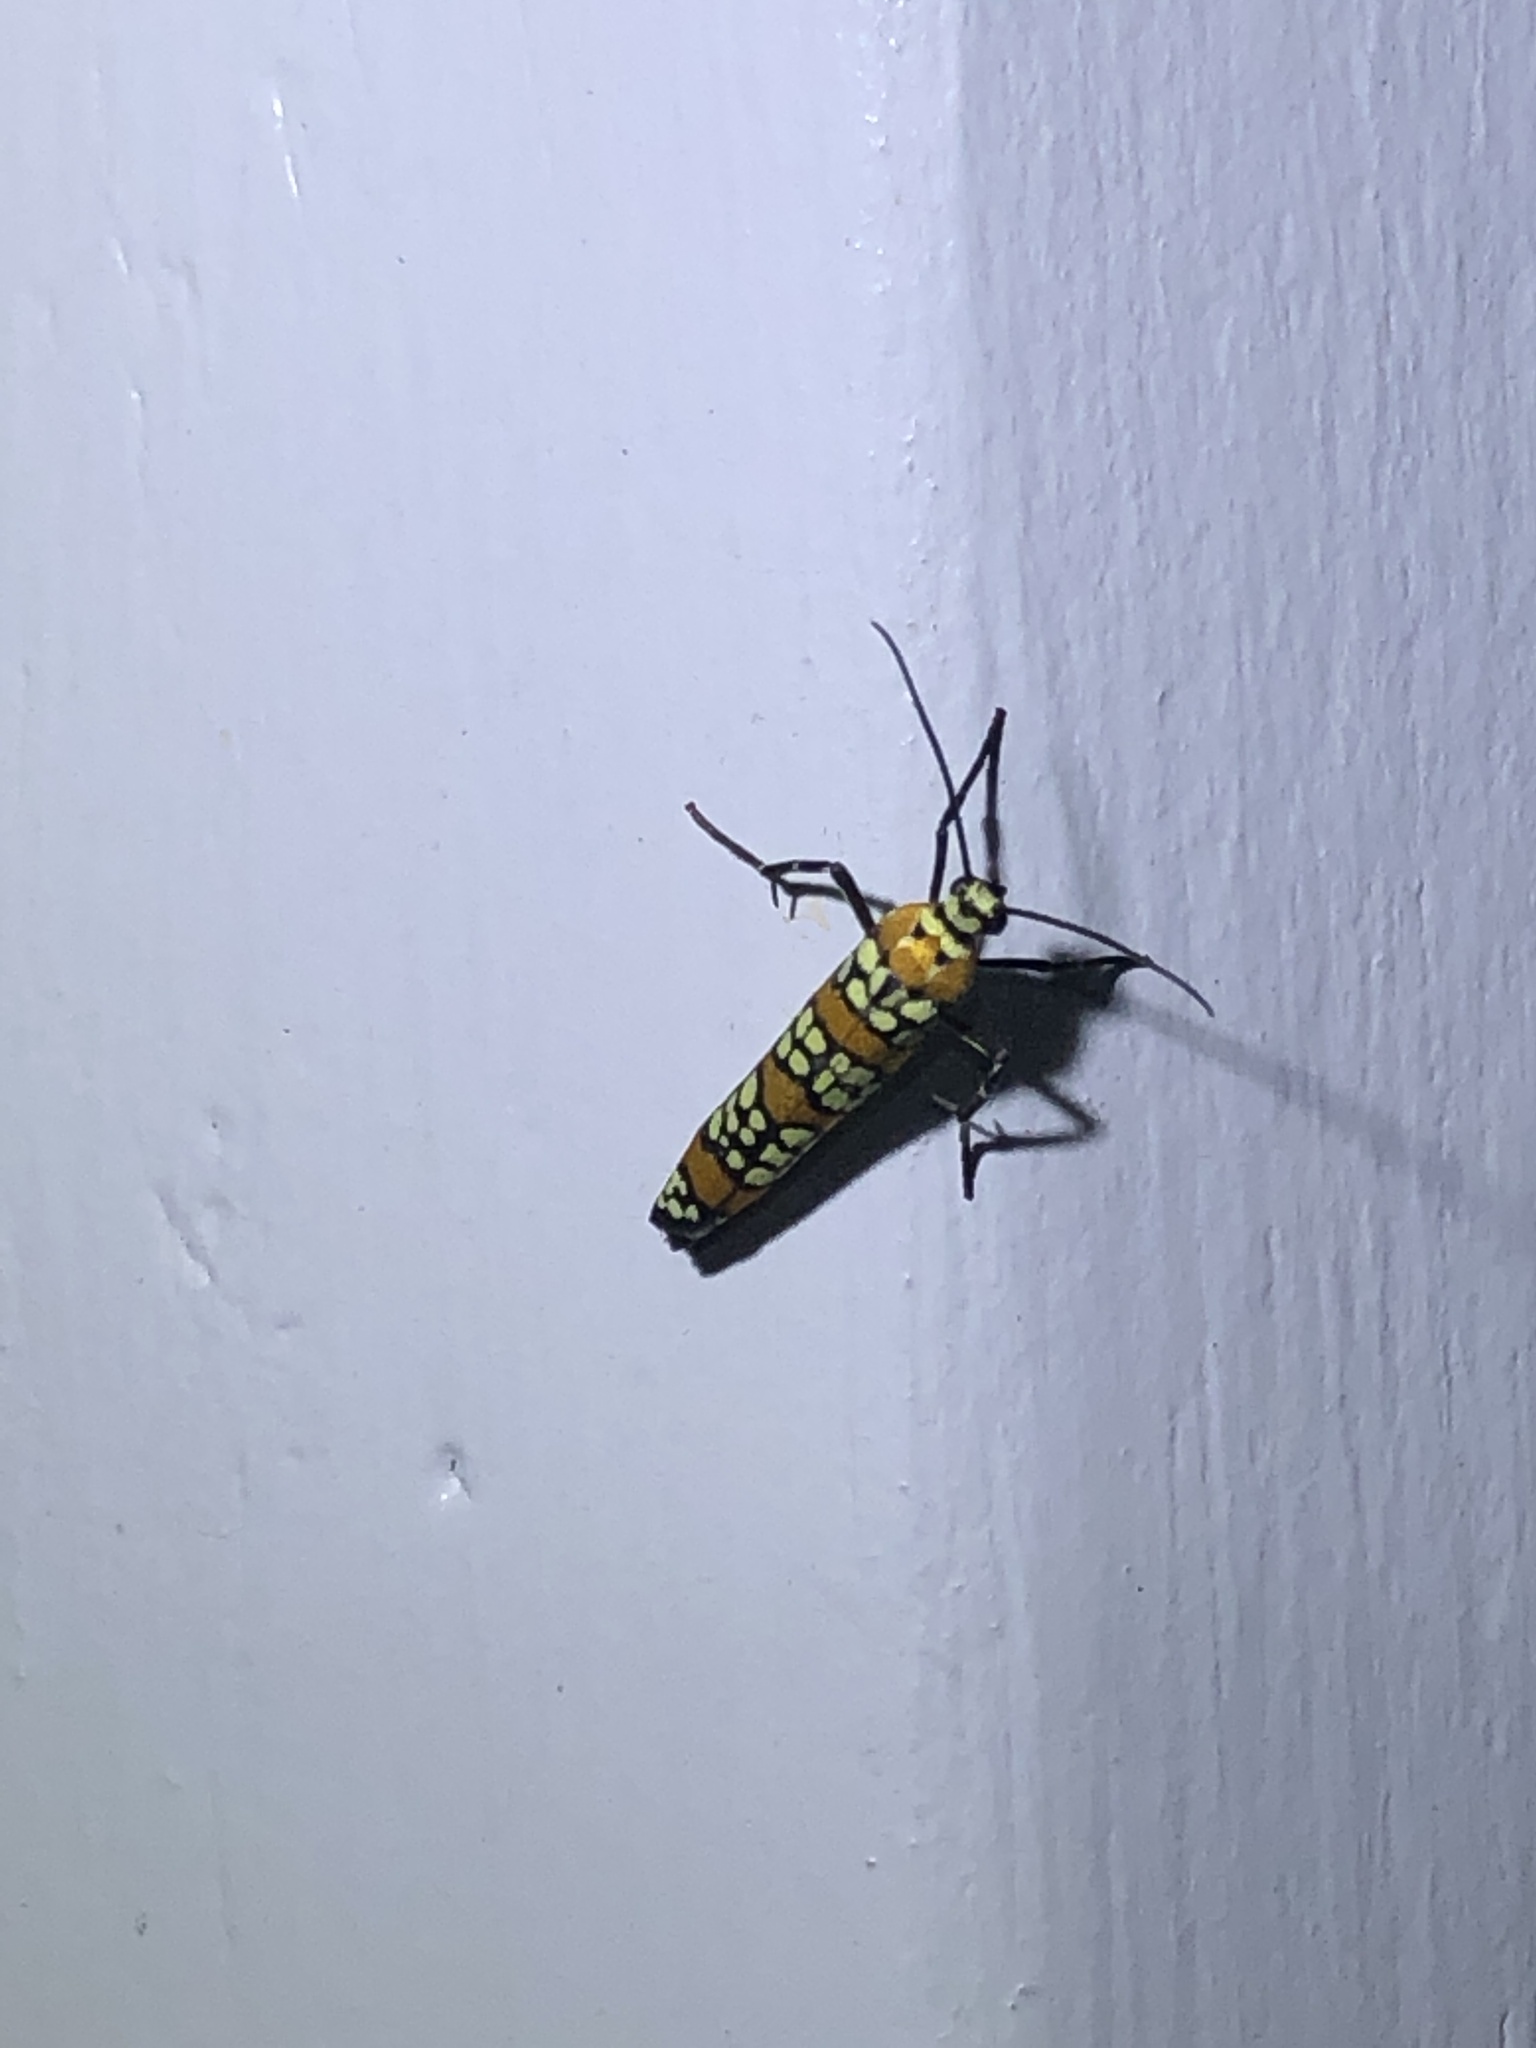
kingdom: Animalia
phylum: Arthropoda
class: Insecta
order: Lepidoptera
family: Attevidae
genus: Atteva
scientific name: Atteva punctella
